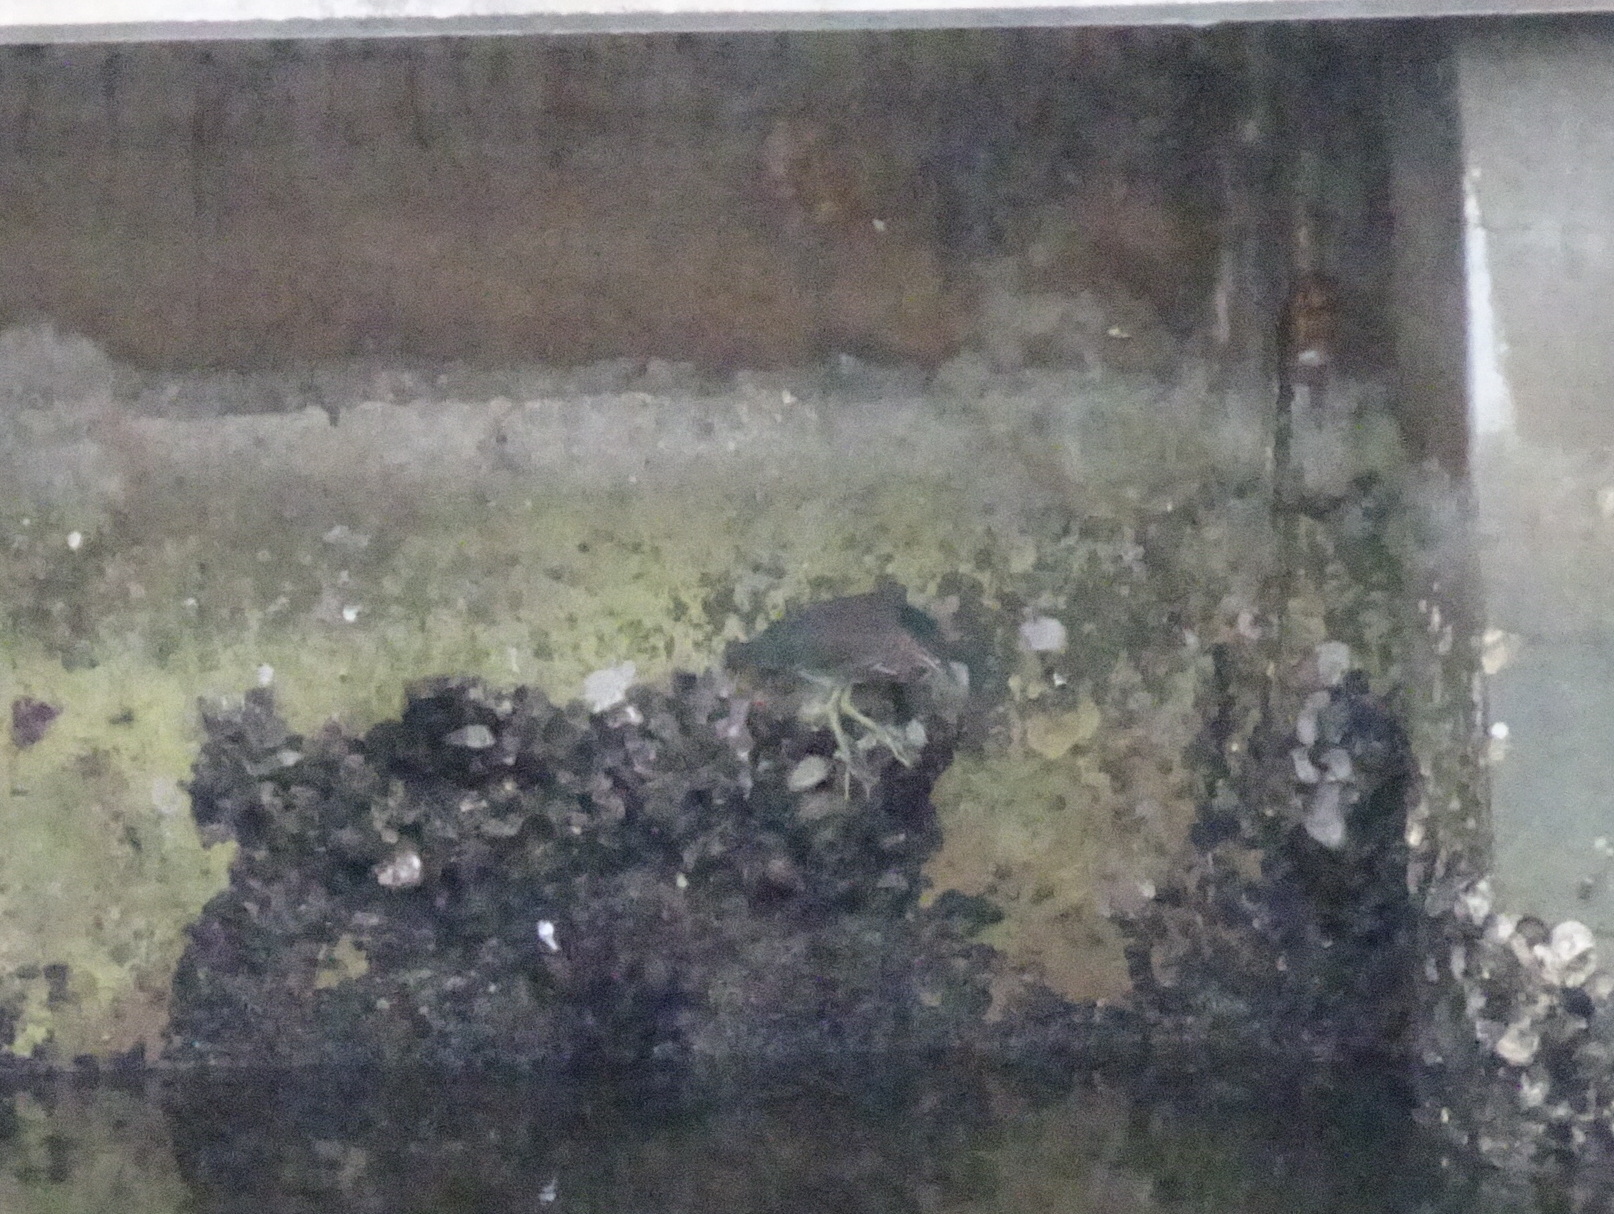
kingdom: Animalia
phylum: Chordata
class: Aves
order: Pelecaniformes
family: Ardeidae
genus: Butorides
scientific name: Butorides virescens
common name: Green heron
